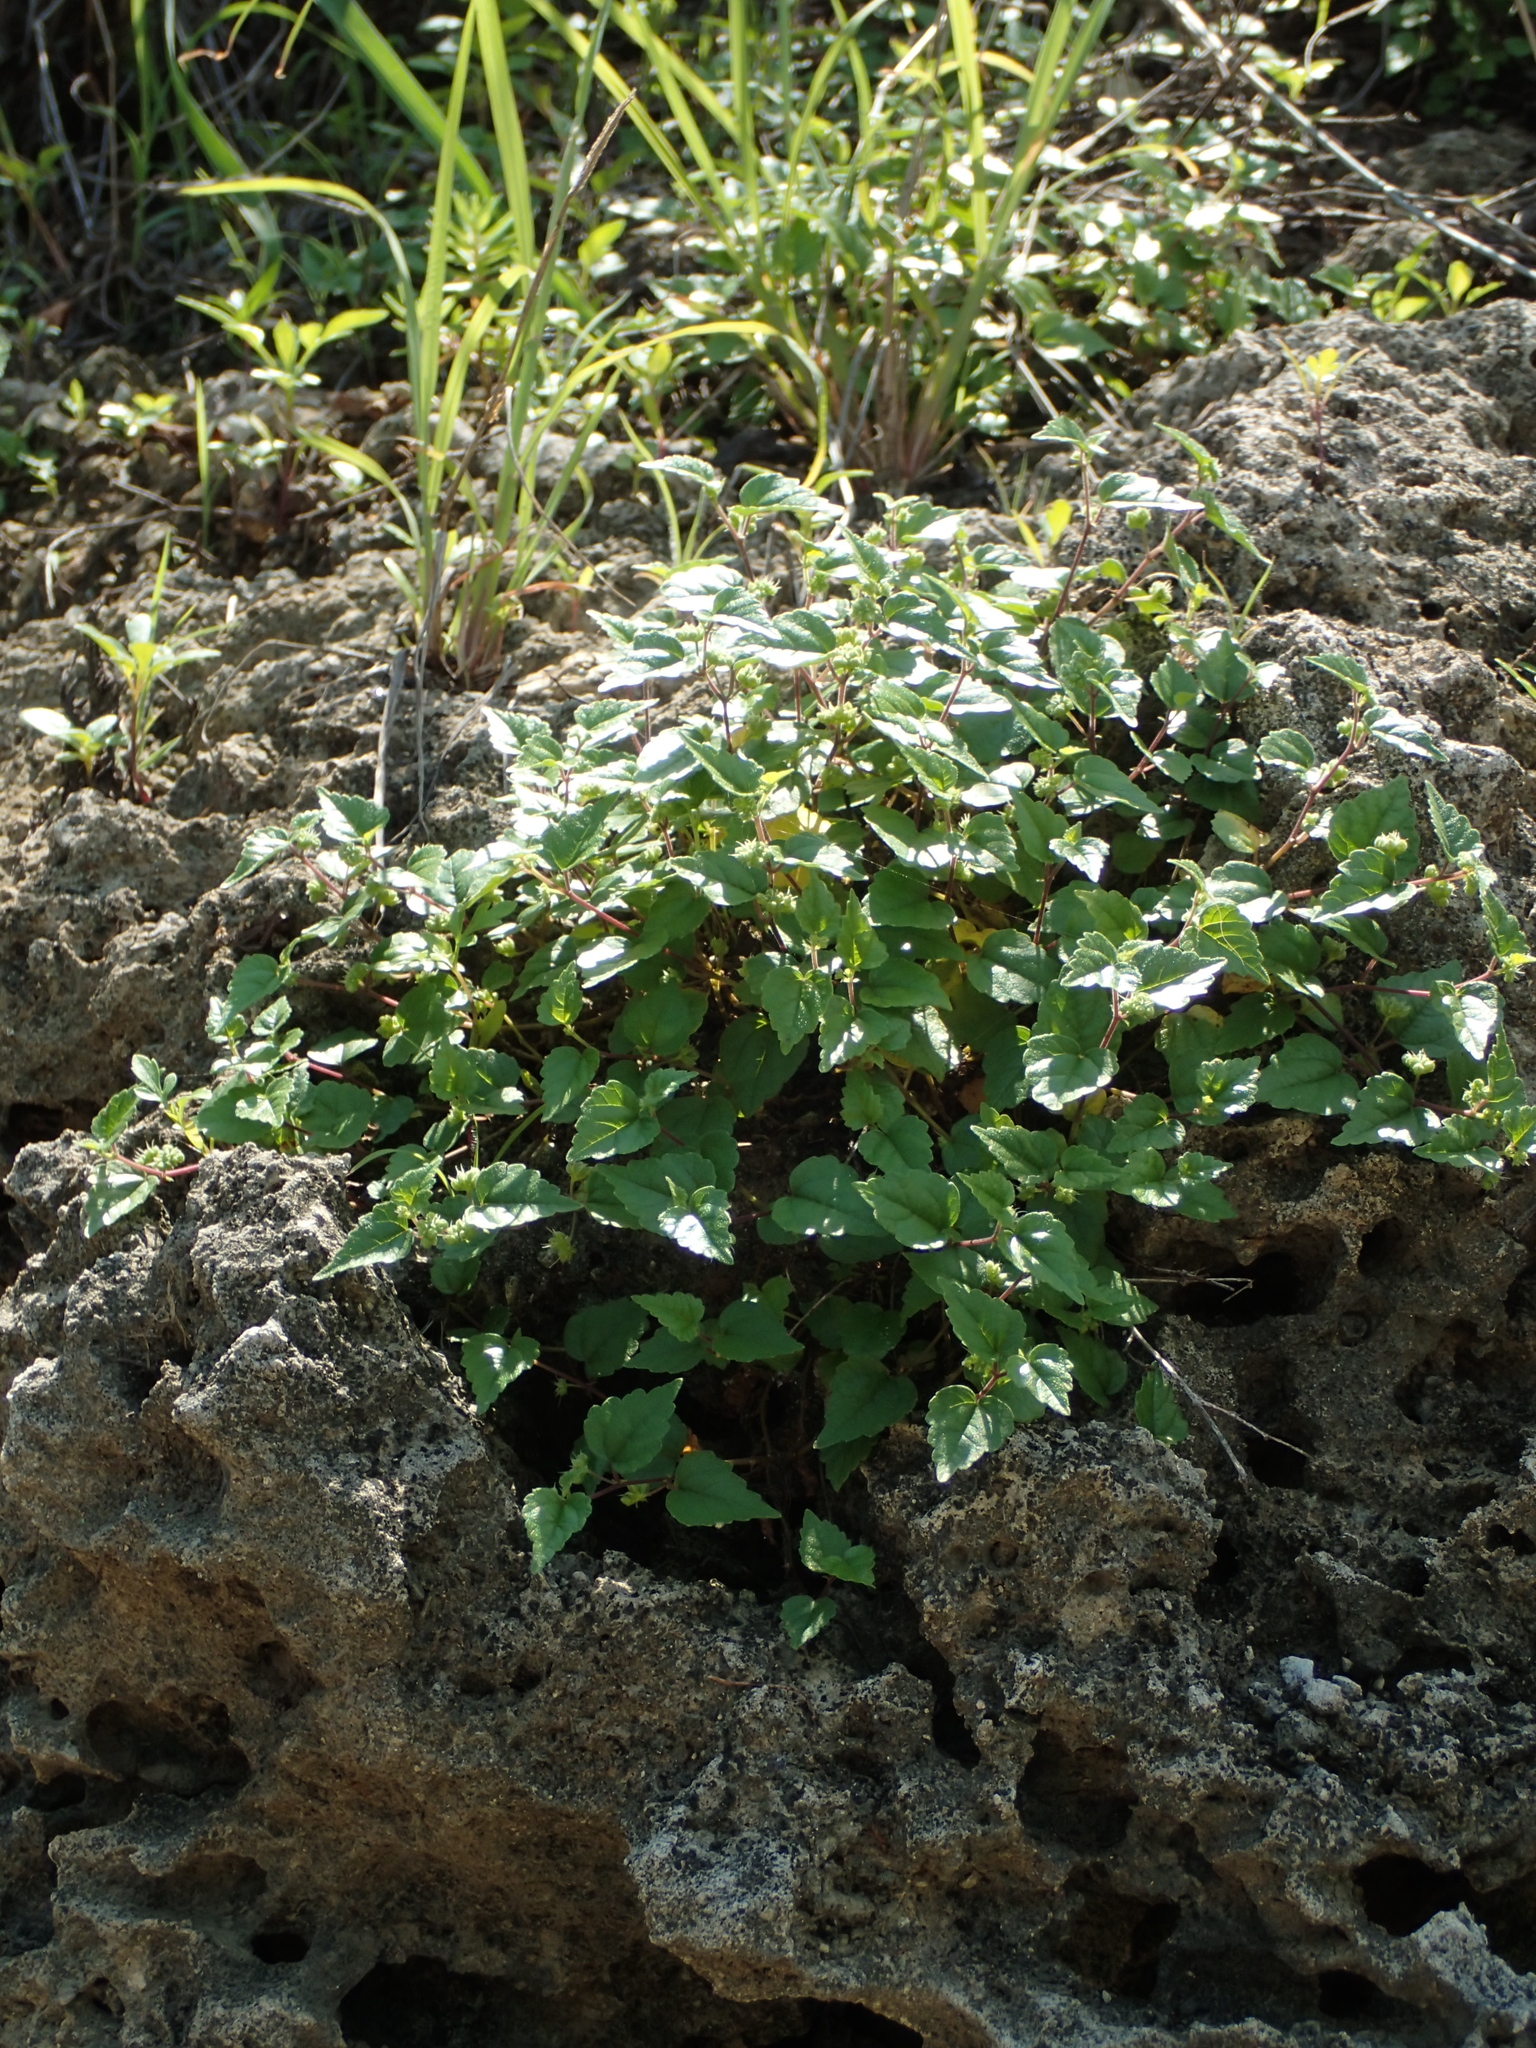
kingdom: Plantae
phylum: Tracheophyta
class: Magnoliopsida
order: Rosales
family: Moraceae
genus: Fatoua
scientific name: Fatoua villosa
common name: Hairy crabweed
